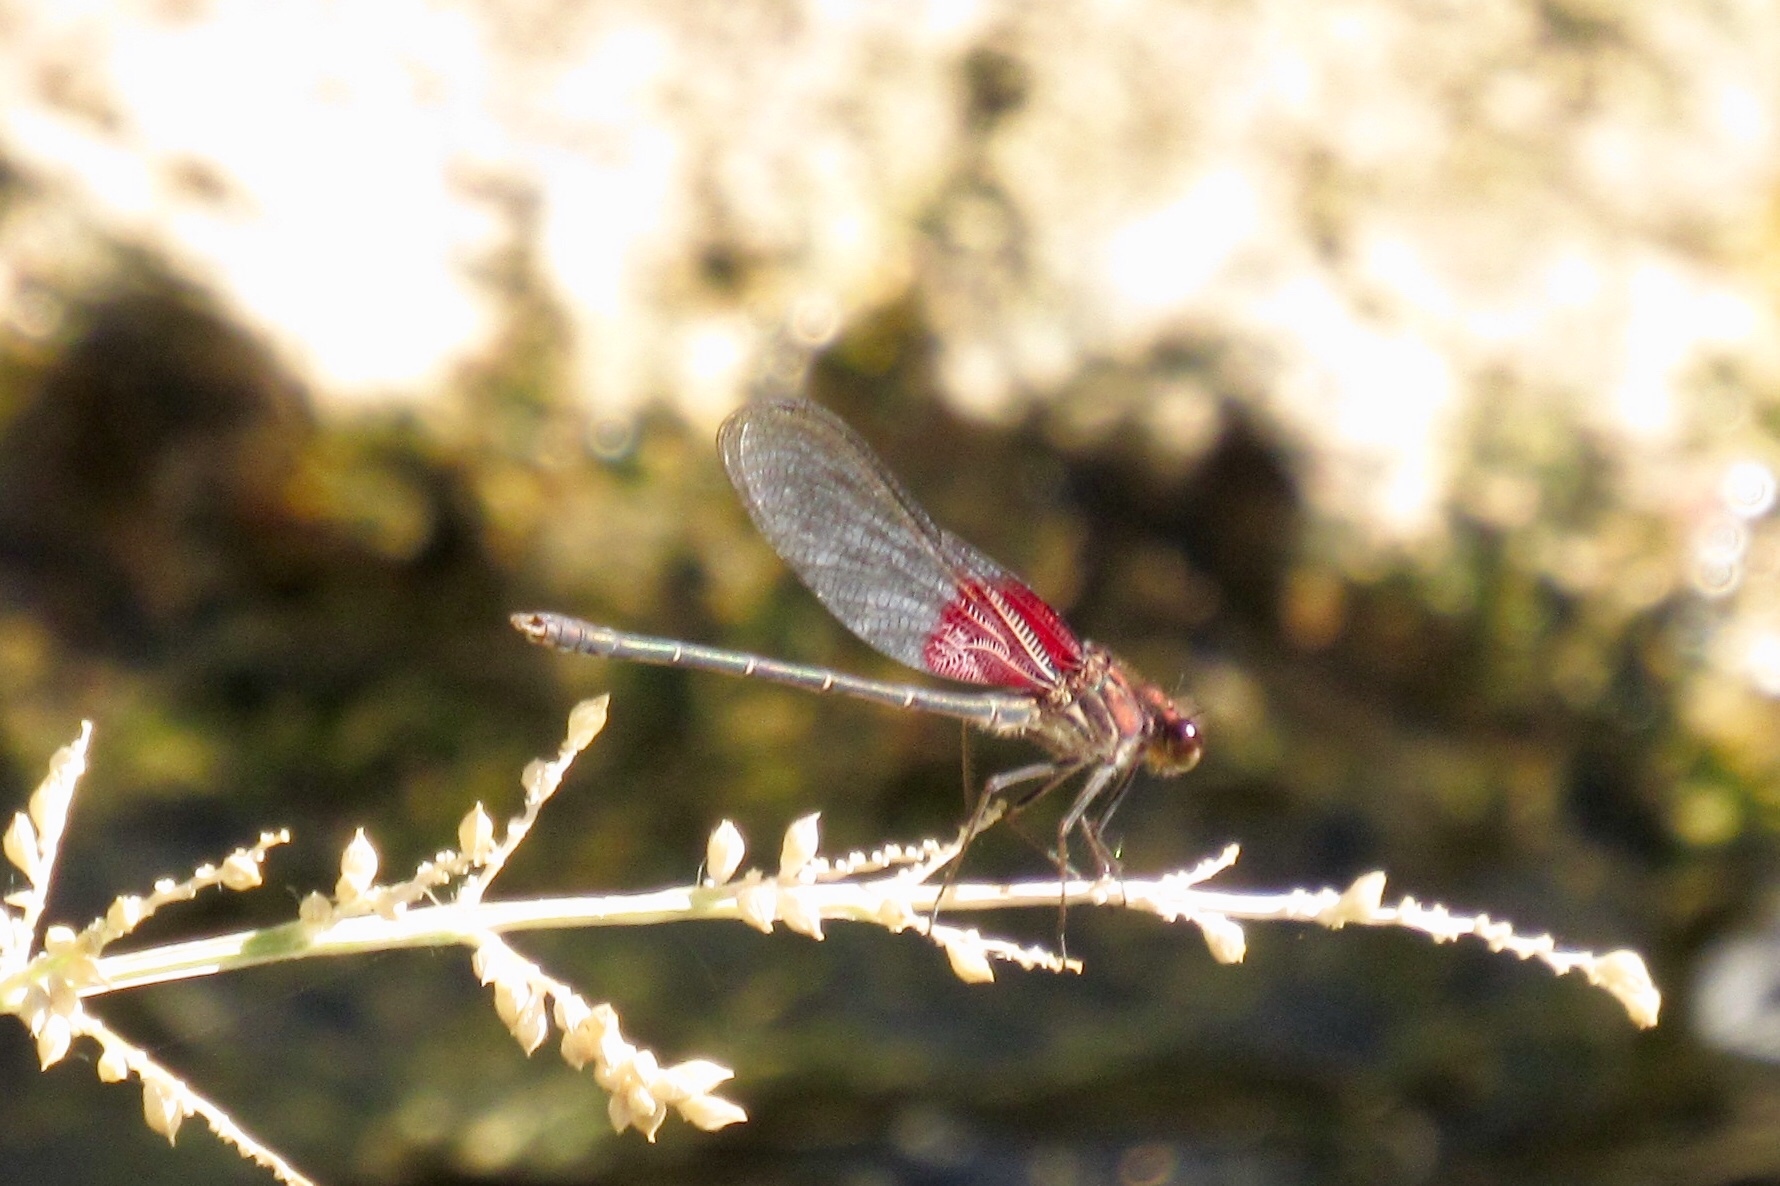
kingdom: Animalia
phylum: Arthropoda
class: Insecta
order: Odonata
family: Calopterygidae
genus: Hetaerina
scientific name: Hetaerina americana
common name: American rubyspot
